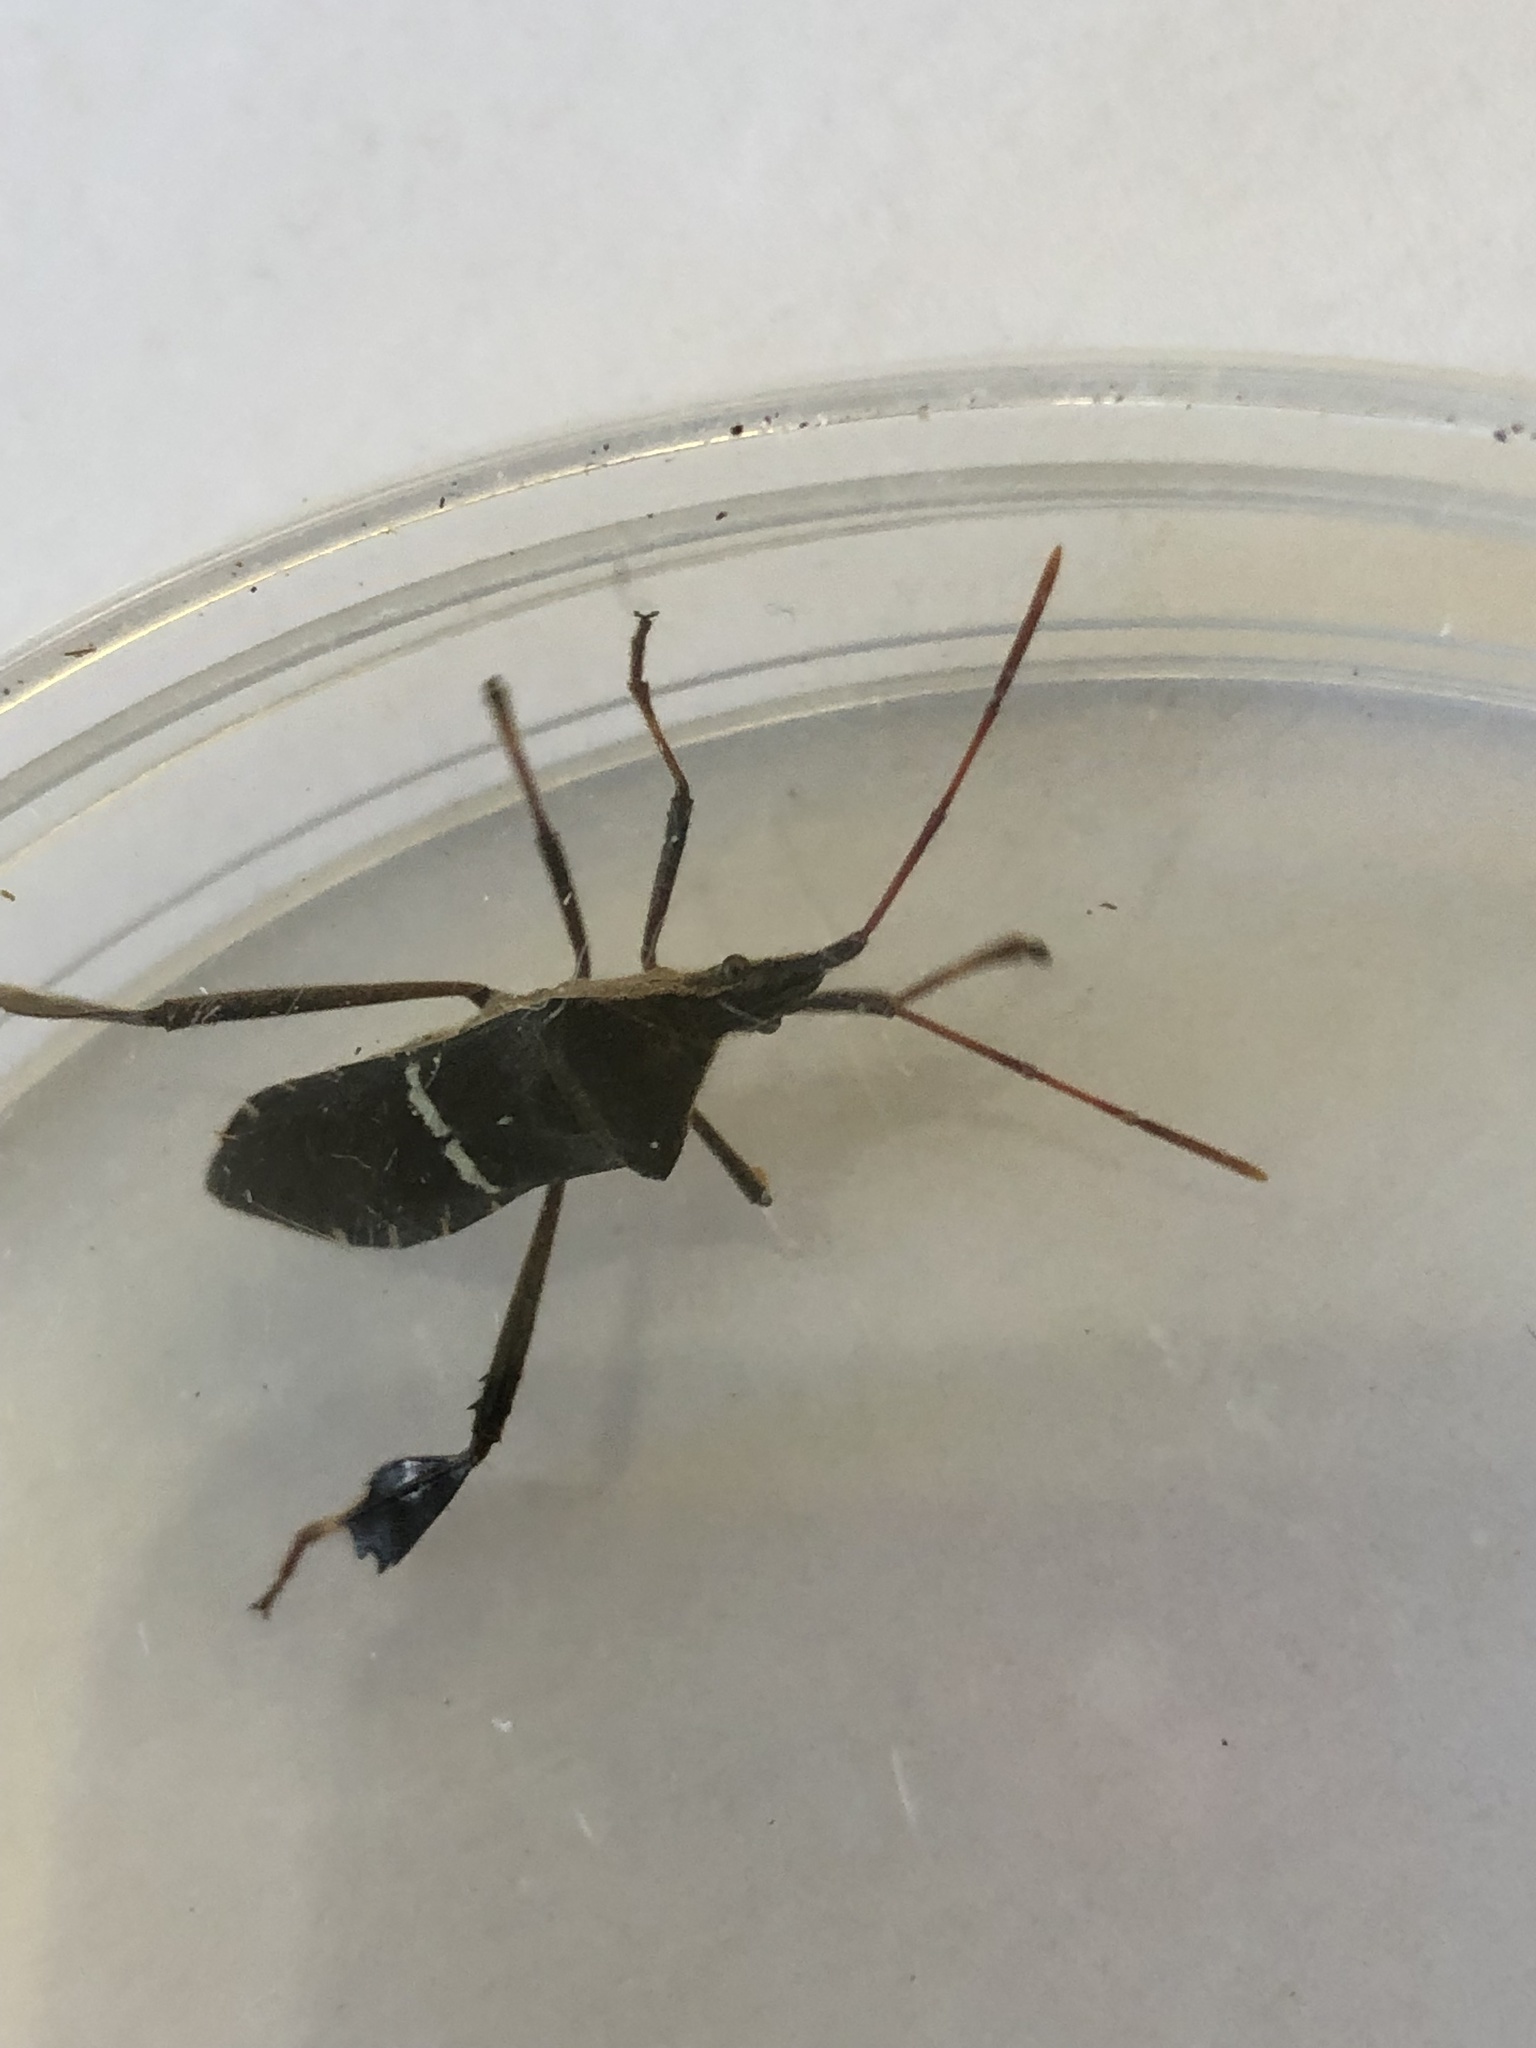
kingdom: Animalia
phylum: Arthropoda
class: Insecta
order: Hemiptera
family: Coreidae
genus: Leptoglossus
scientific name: Leptoglossus phyllopus
